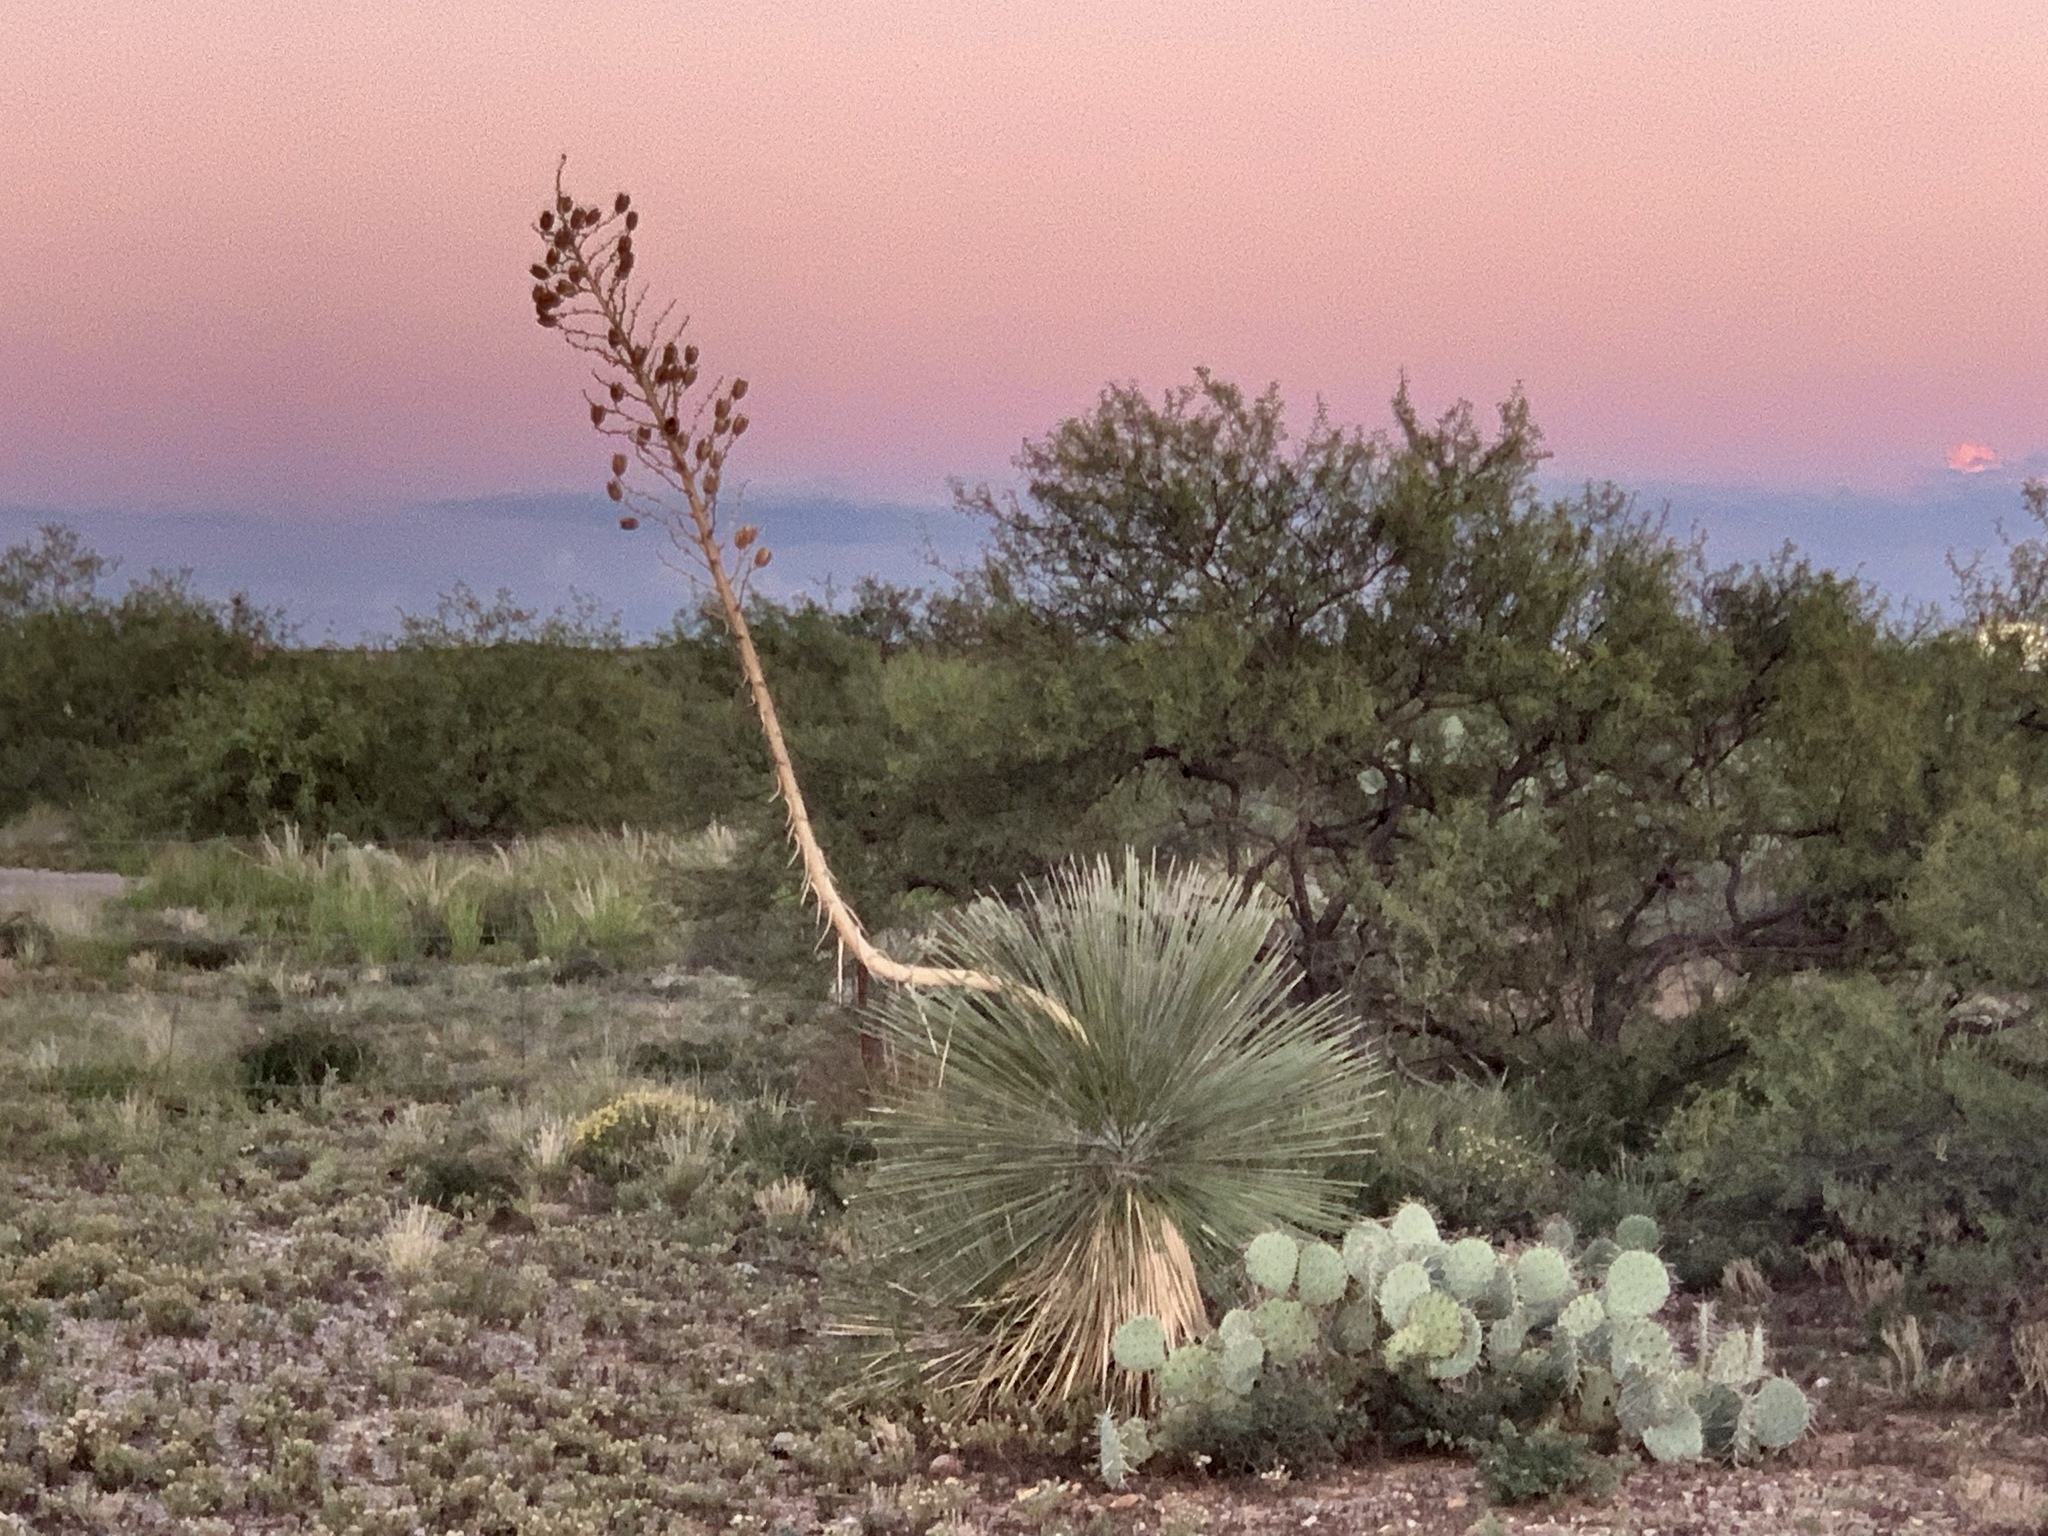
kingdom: Plantae
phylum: Tracheophyta
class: Liliopsida
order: Asparagales
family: Asparagaceae
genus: Yucca
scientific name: Yucca elata
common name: Palmella
